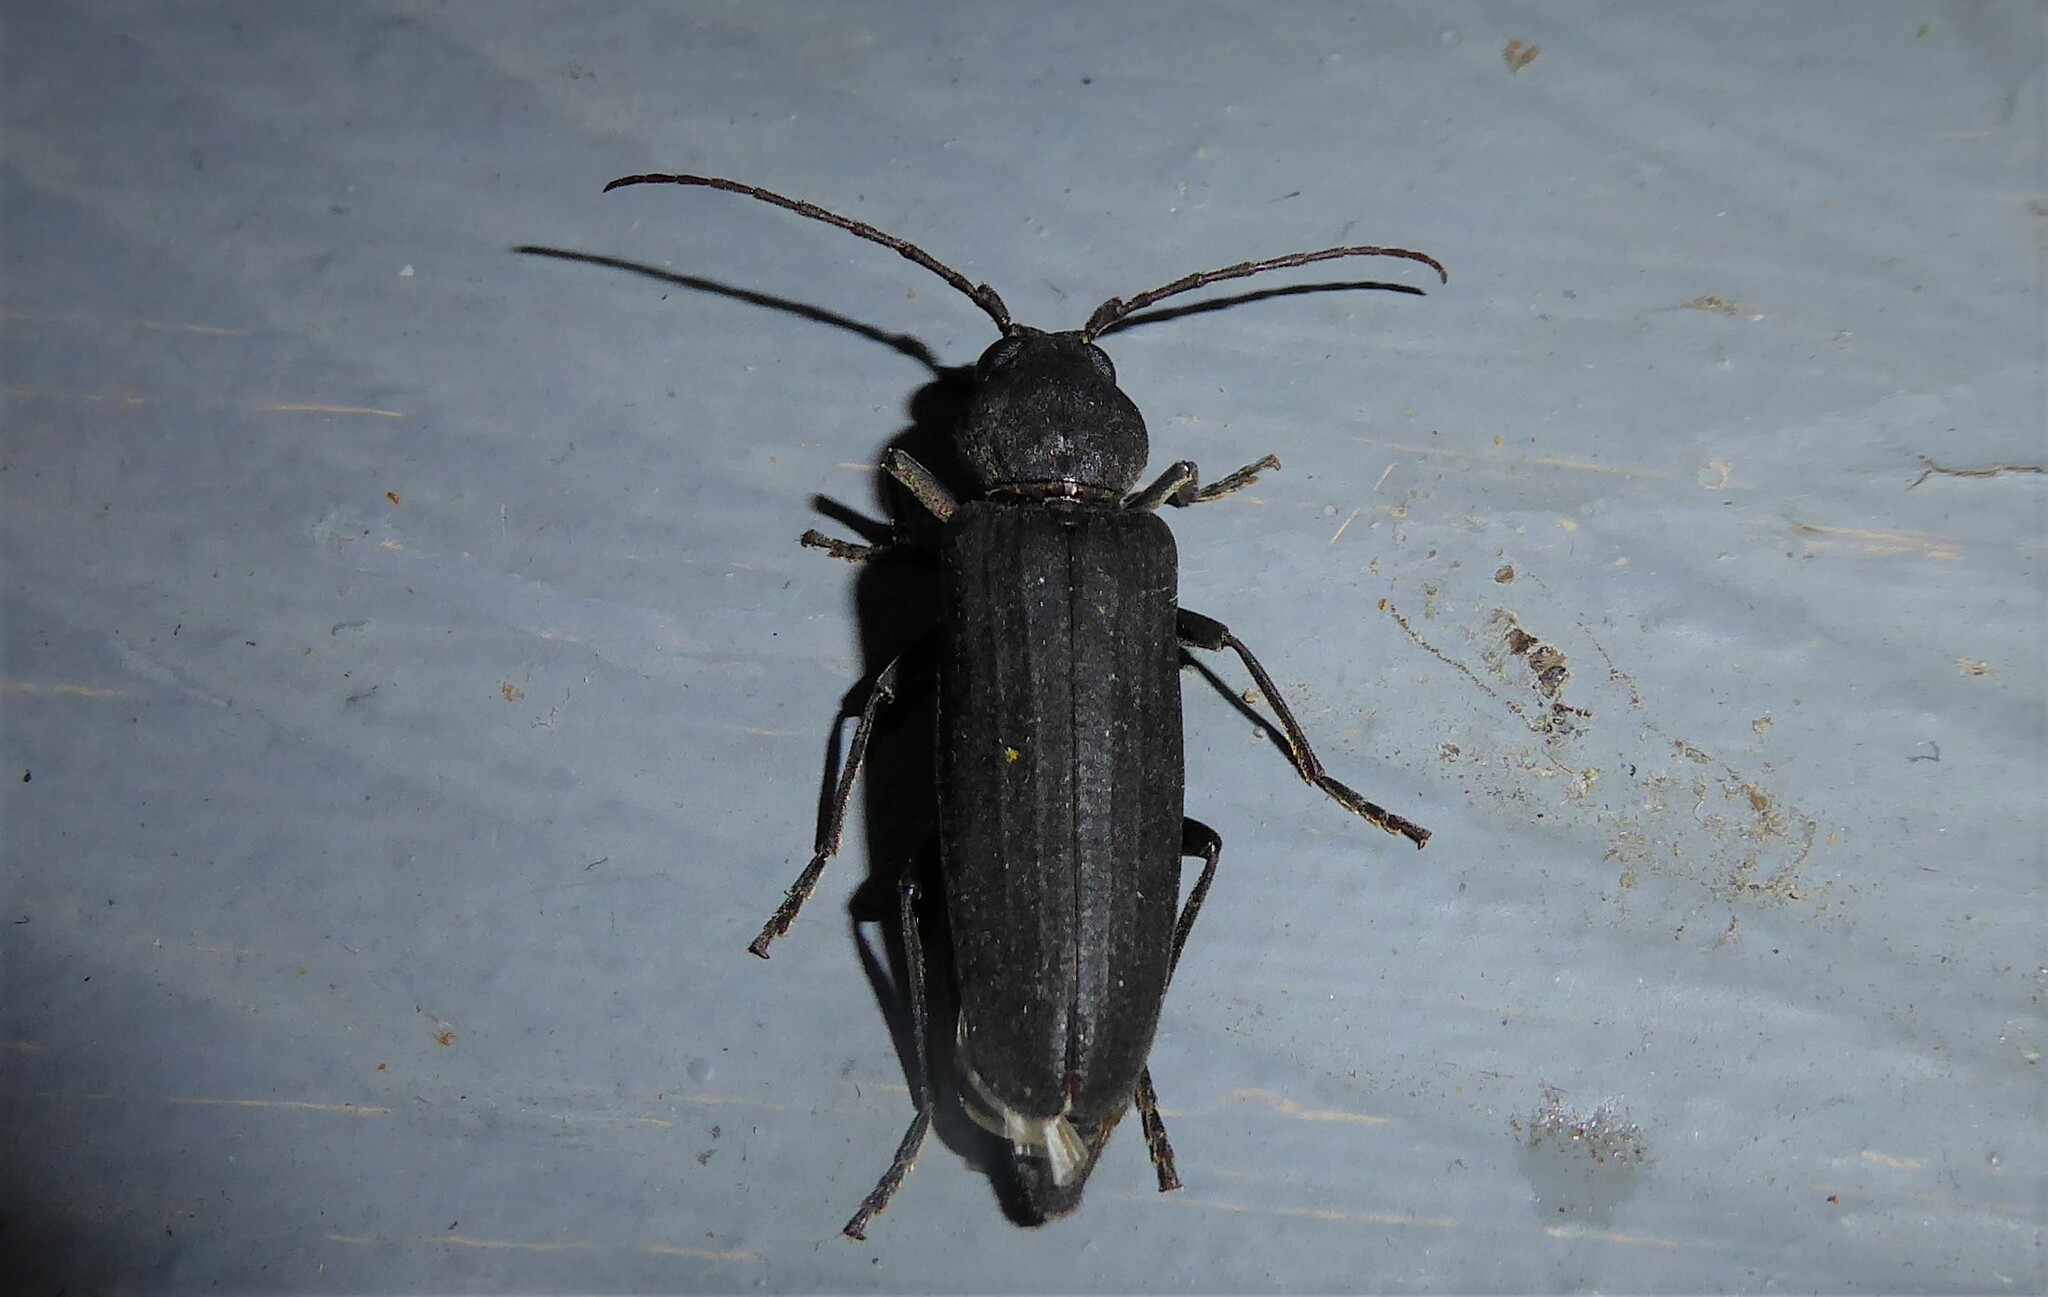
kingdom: Animalia
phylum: Arthropoda
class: Insecta
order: Coleoptera
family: Cerambycidae
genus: Arhopalus
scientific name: Arhopalus ferus
